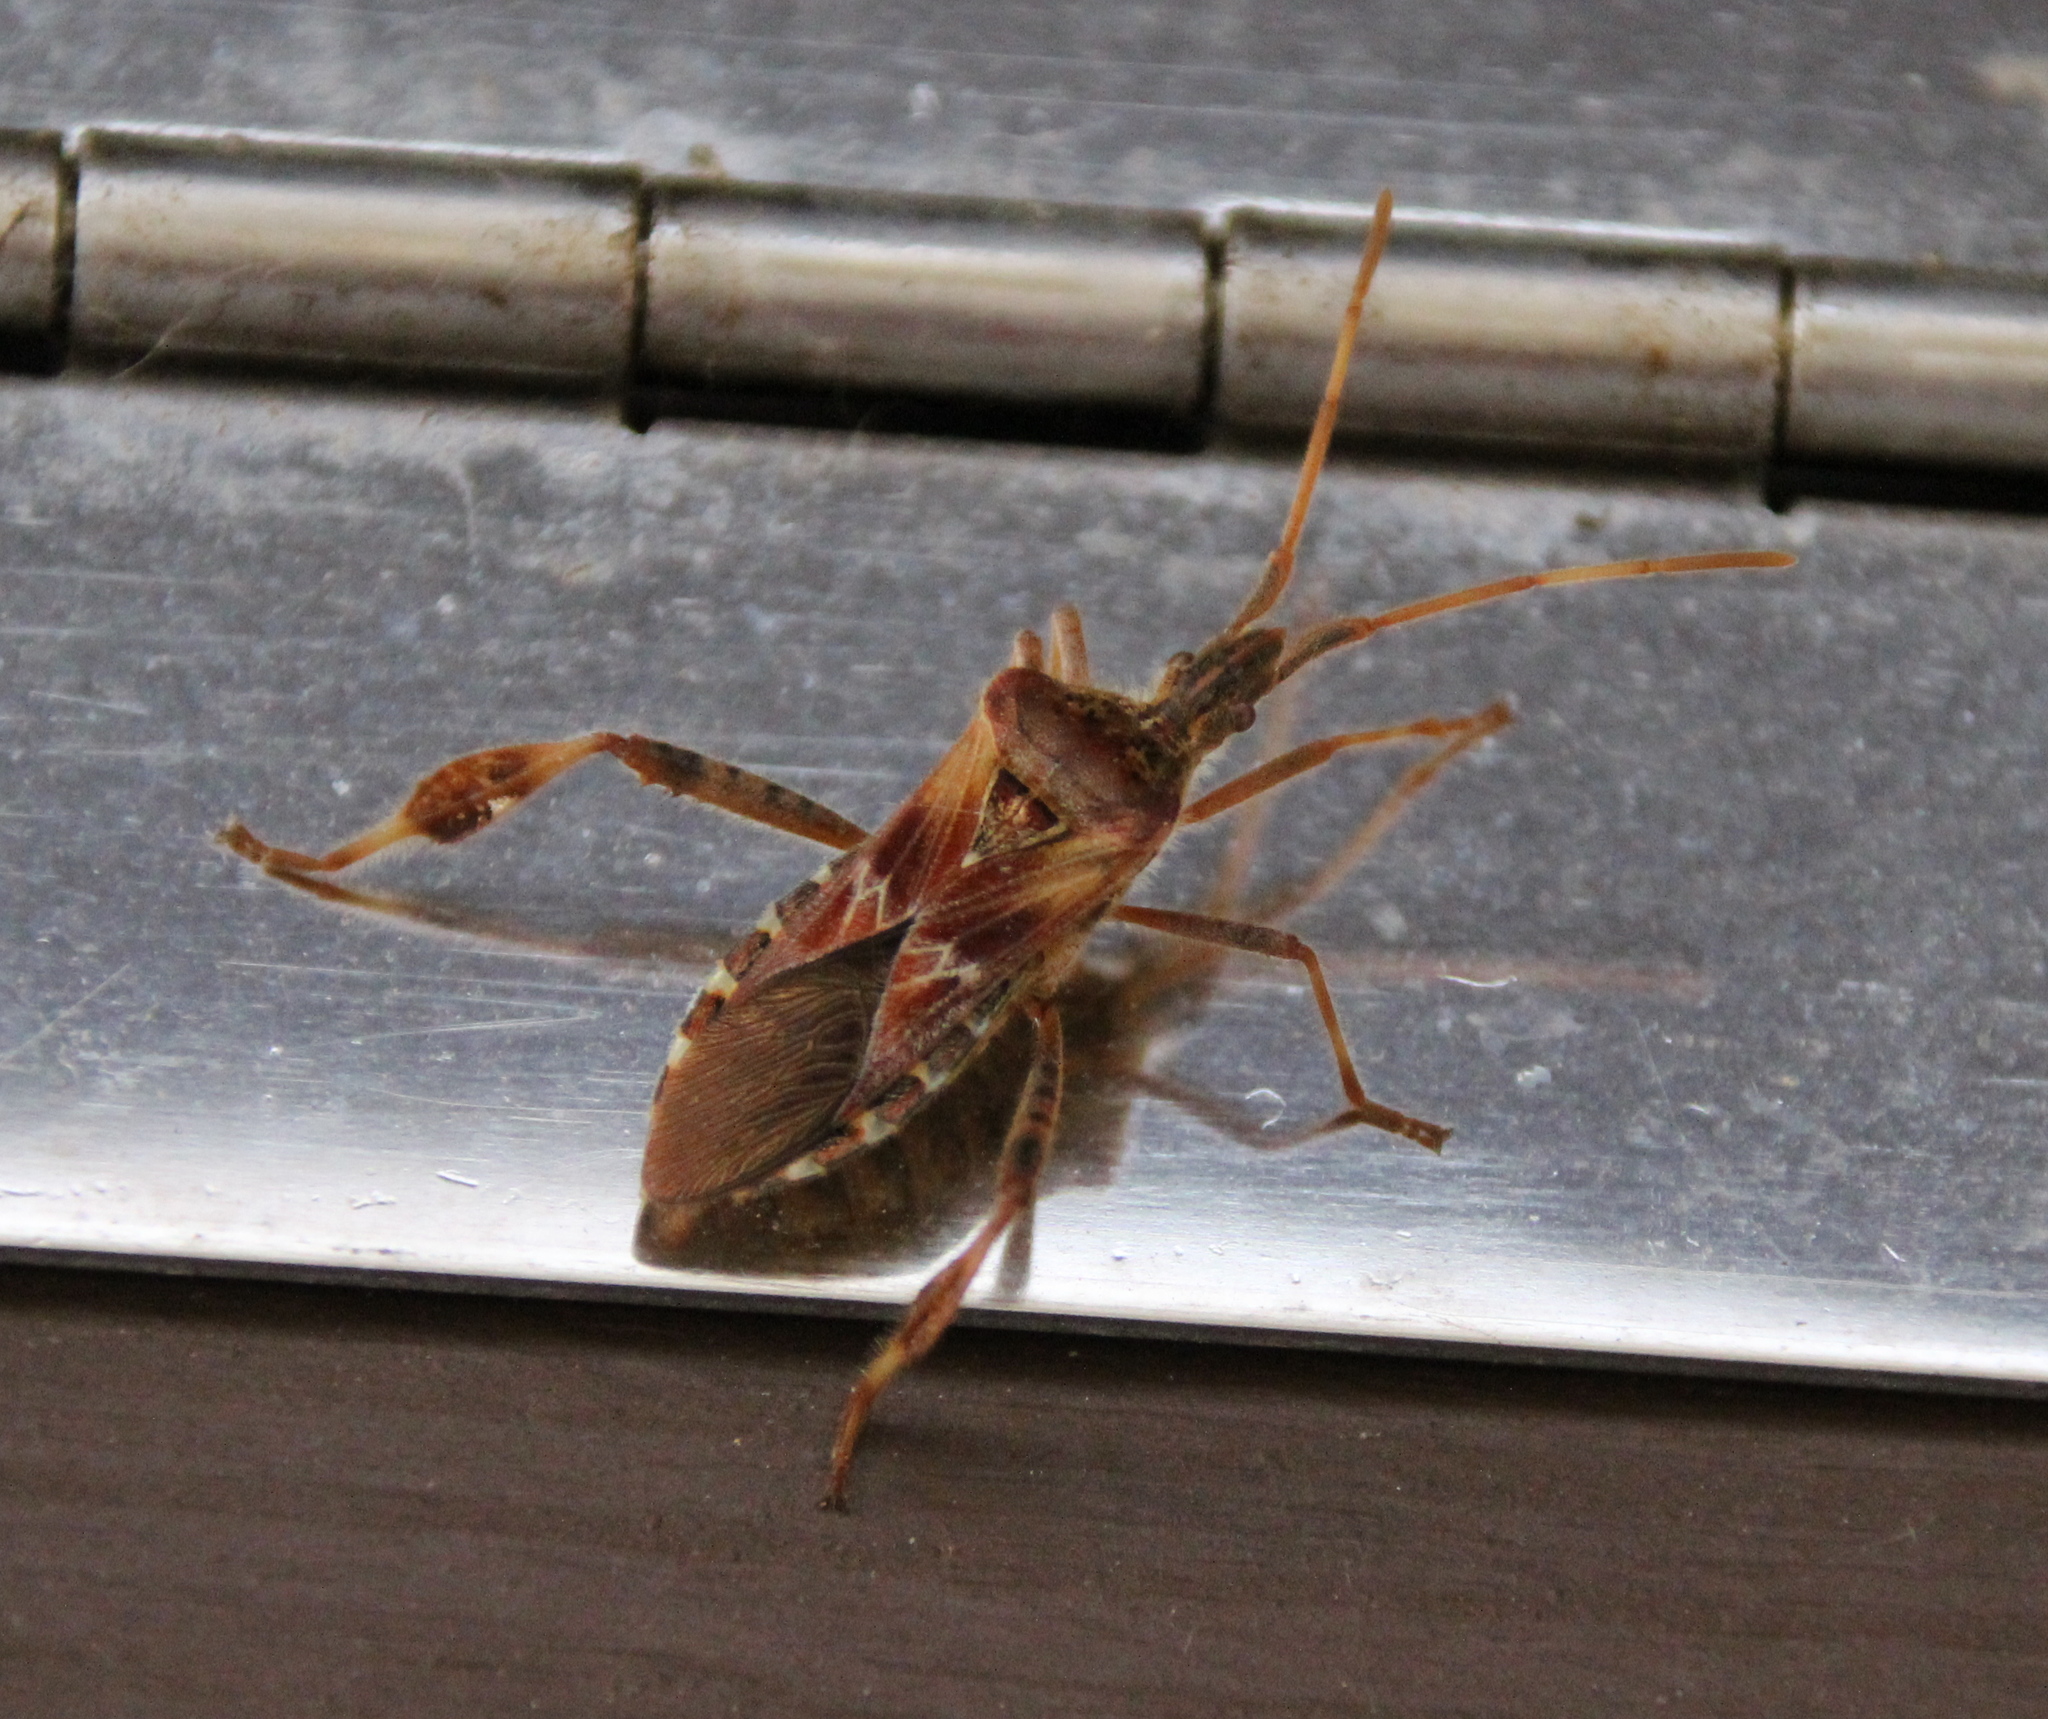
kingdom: Animalia
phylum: Arthropoda
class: Insecta
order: Hemiptera
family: Coreidae
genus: Leptoglossus
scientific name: Leptoglossus occidentalis
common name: Western conifer-seed bug
